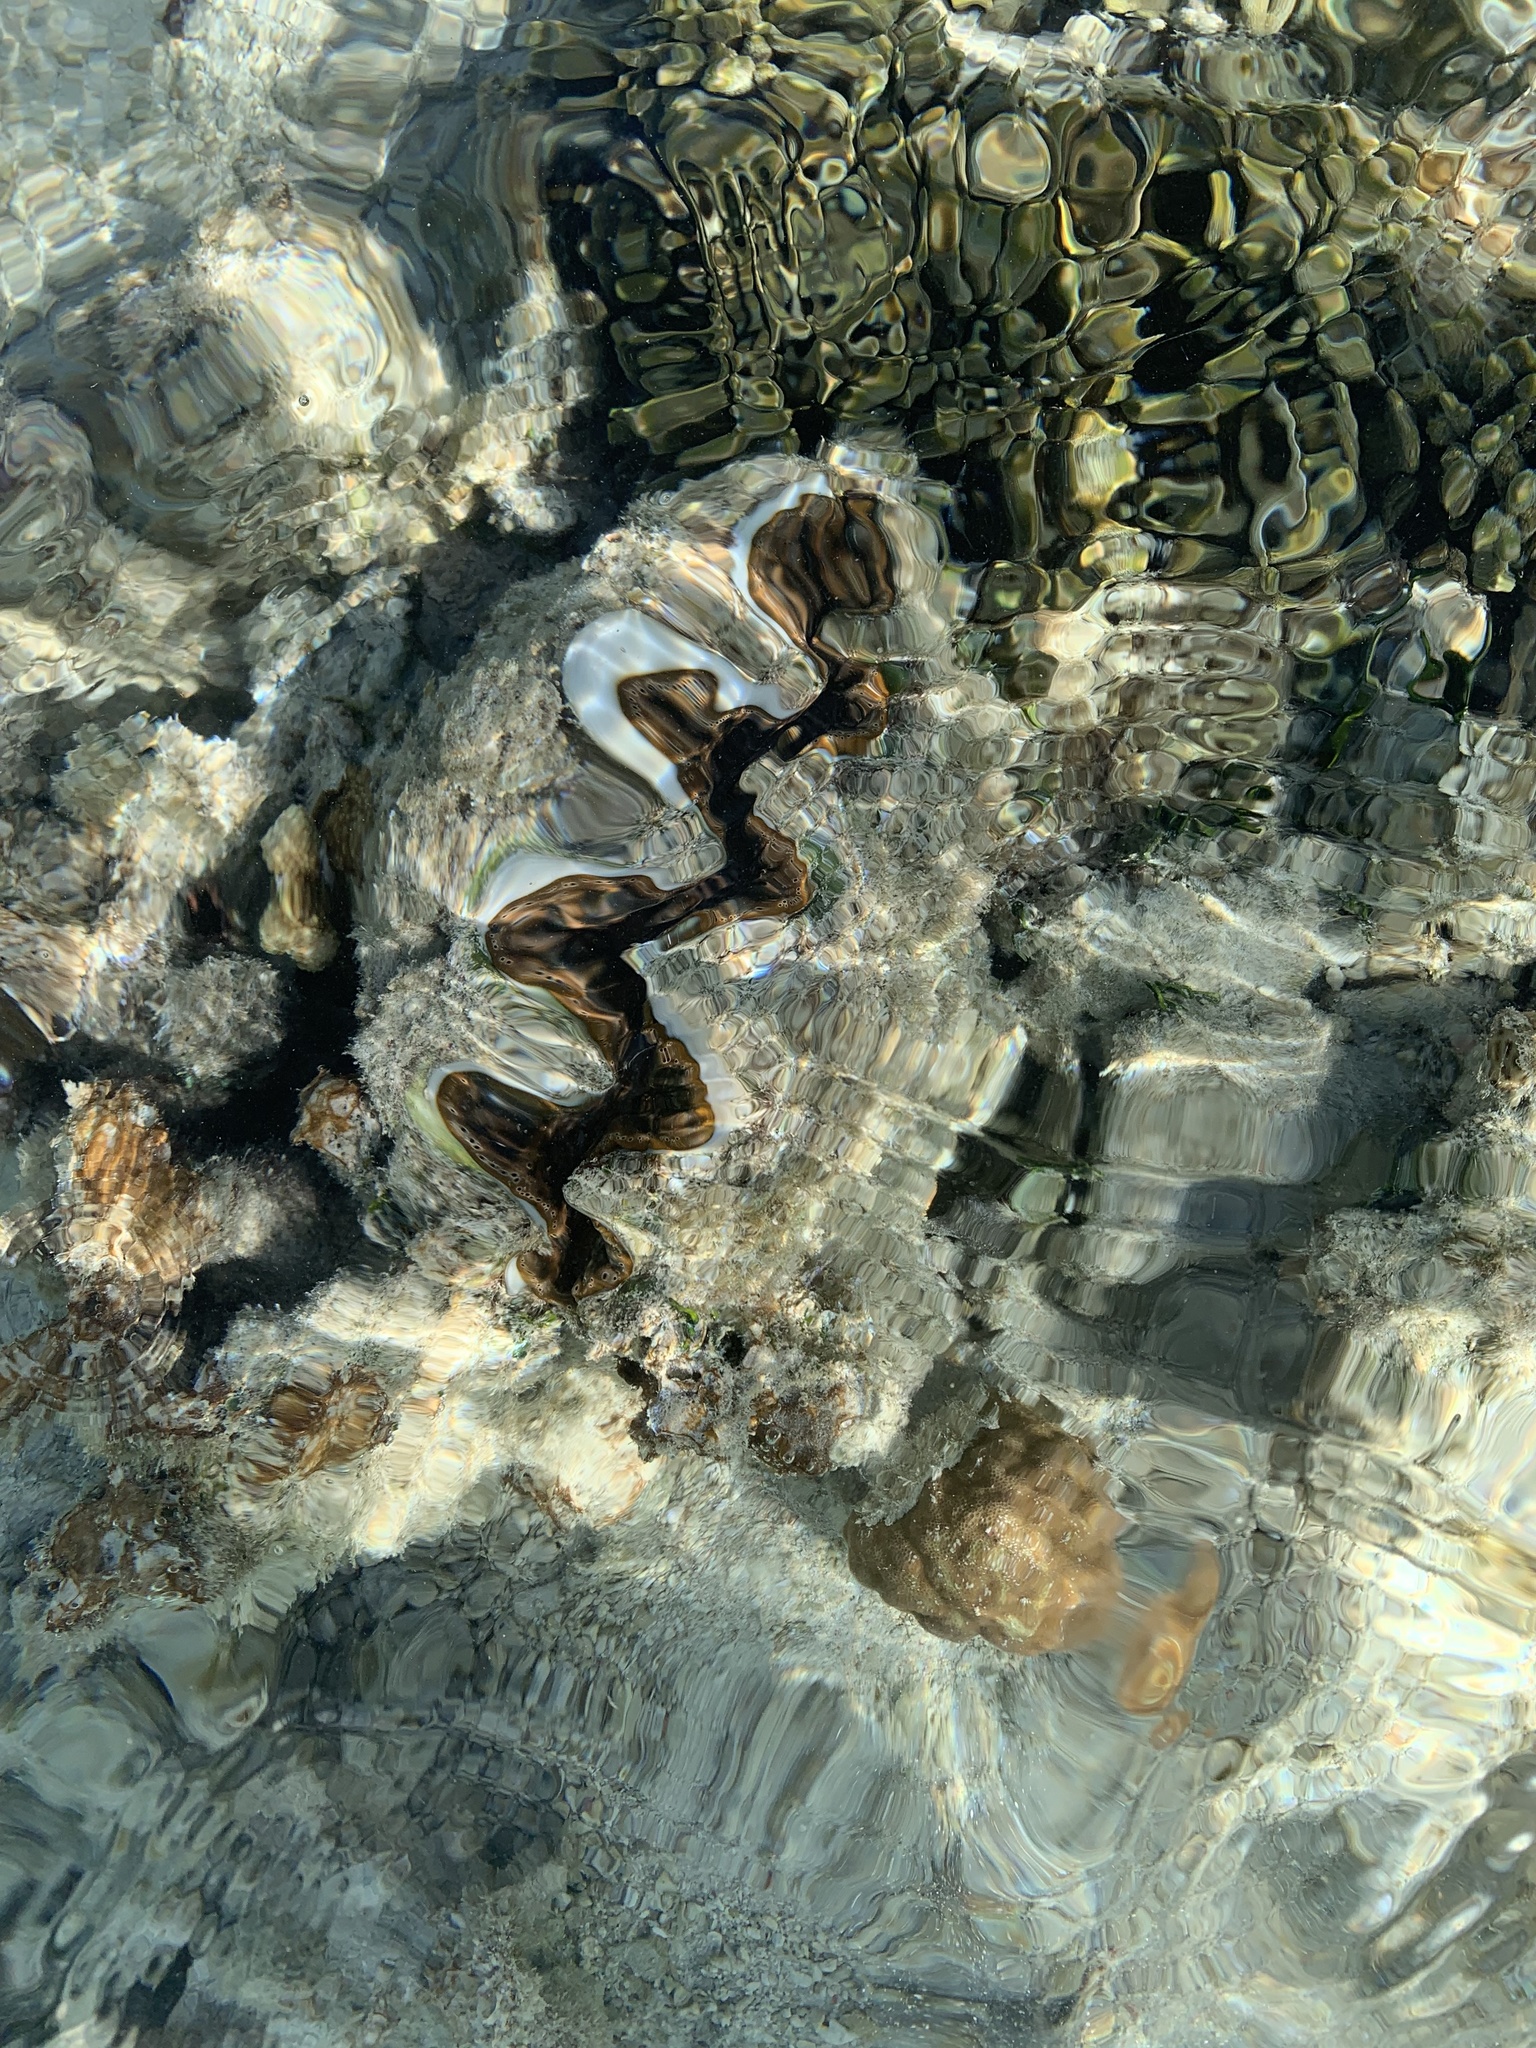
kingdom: Animalia
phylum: Mollusca
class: Bivalvia
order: Cardiida
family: Cardiidae
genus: Tridacna
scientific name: Tridacna maxima
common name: Small giant clam
